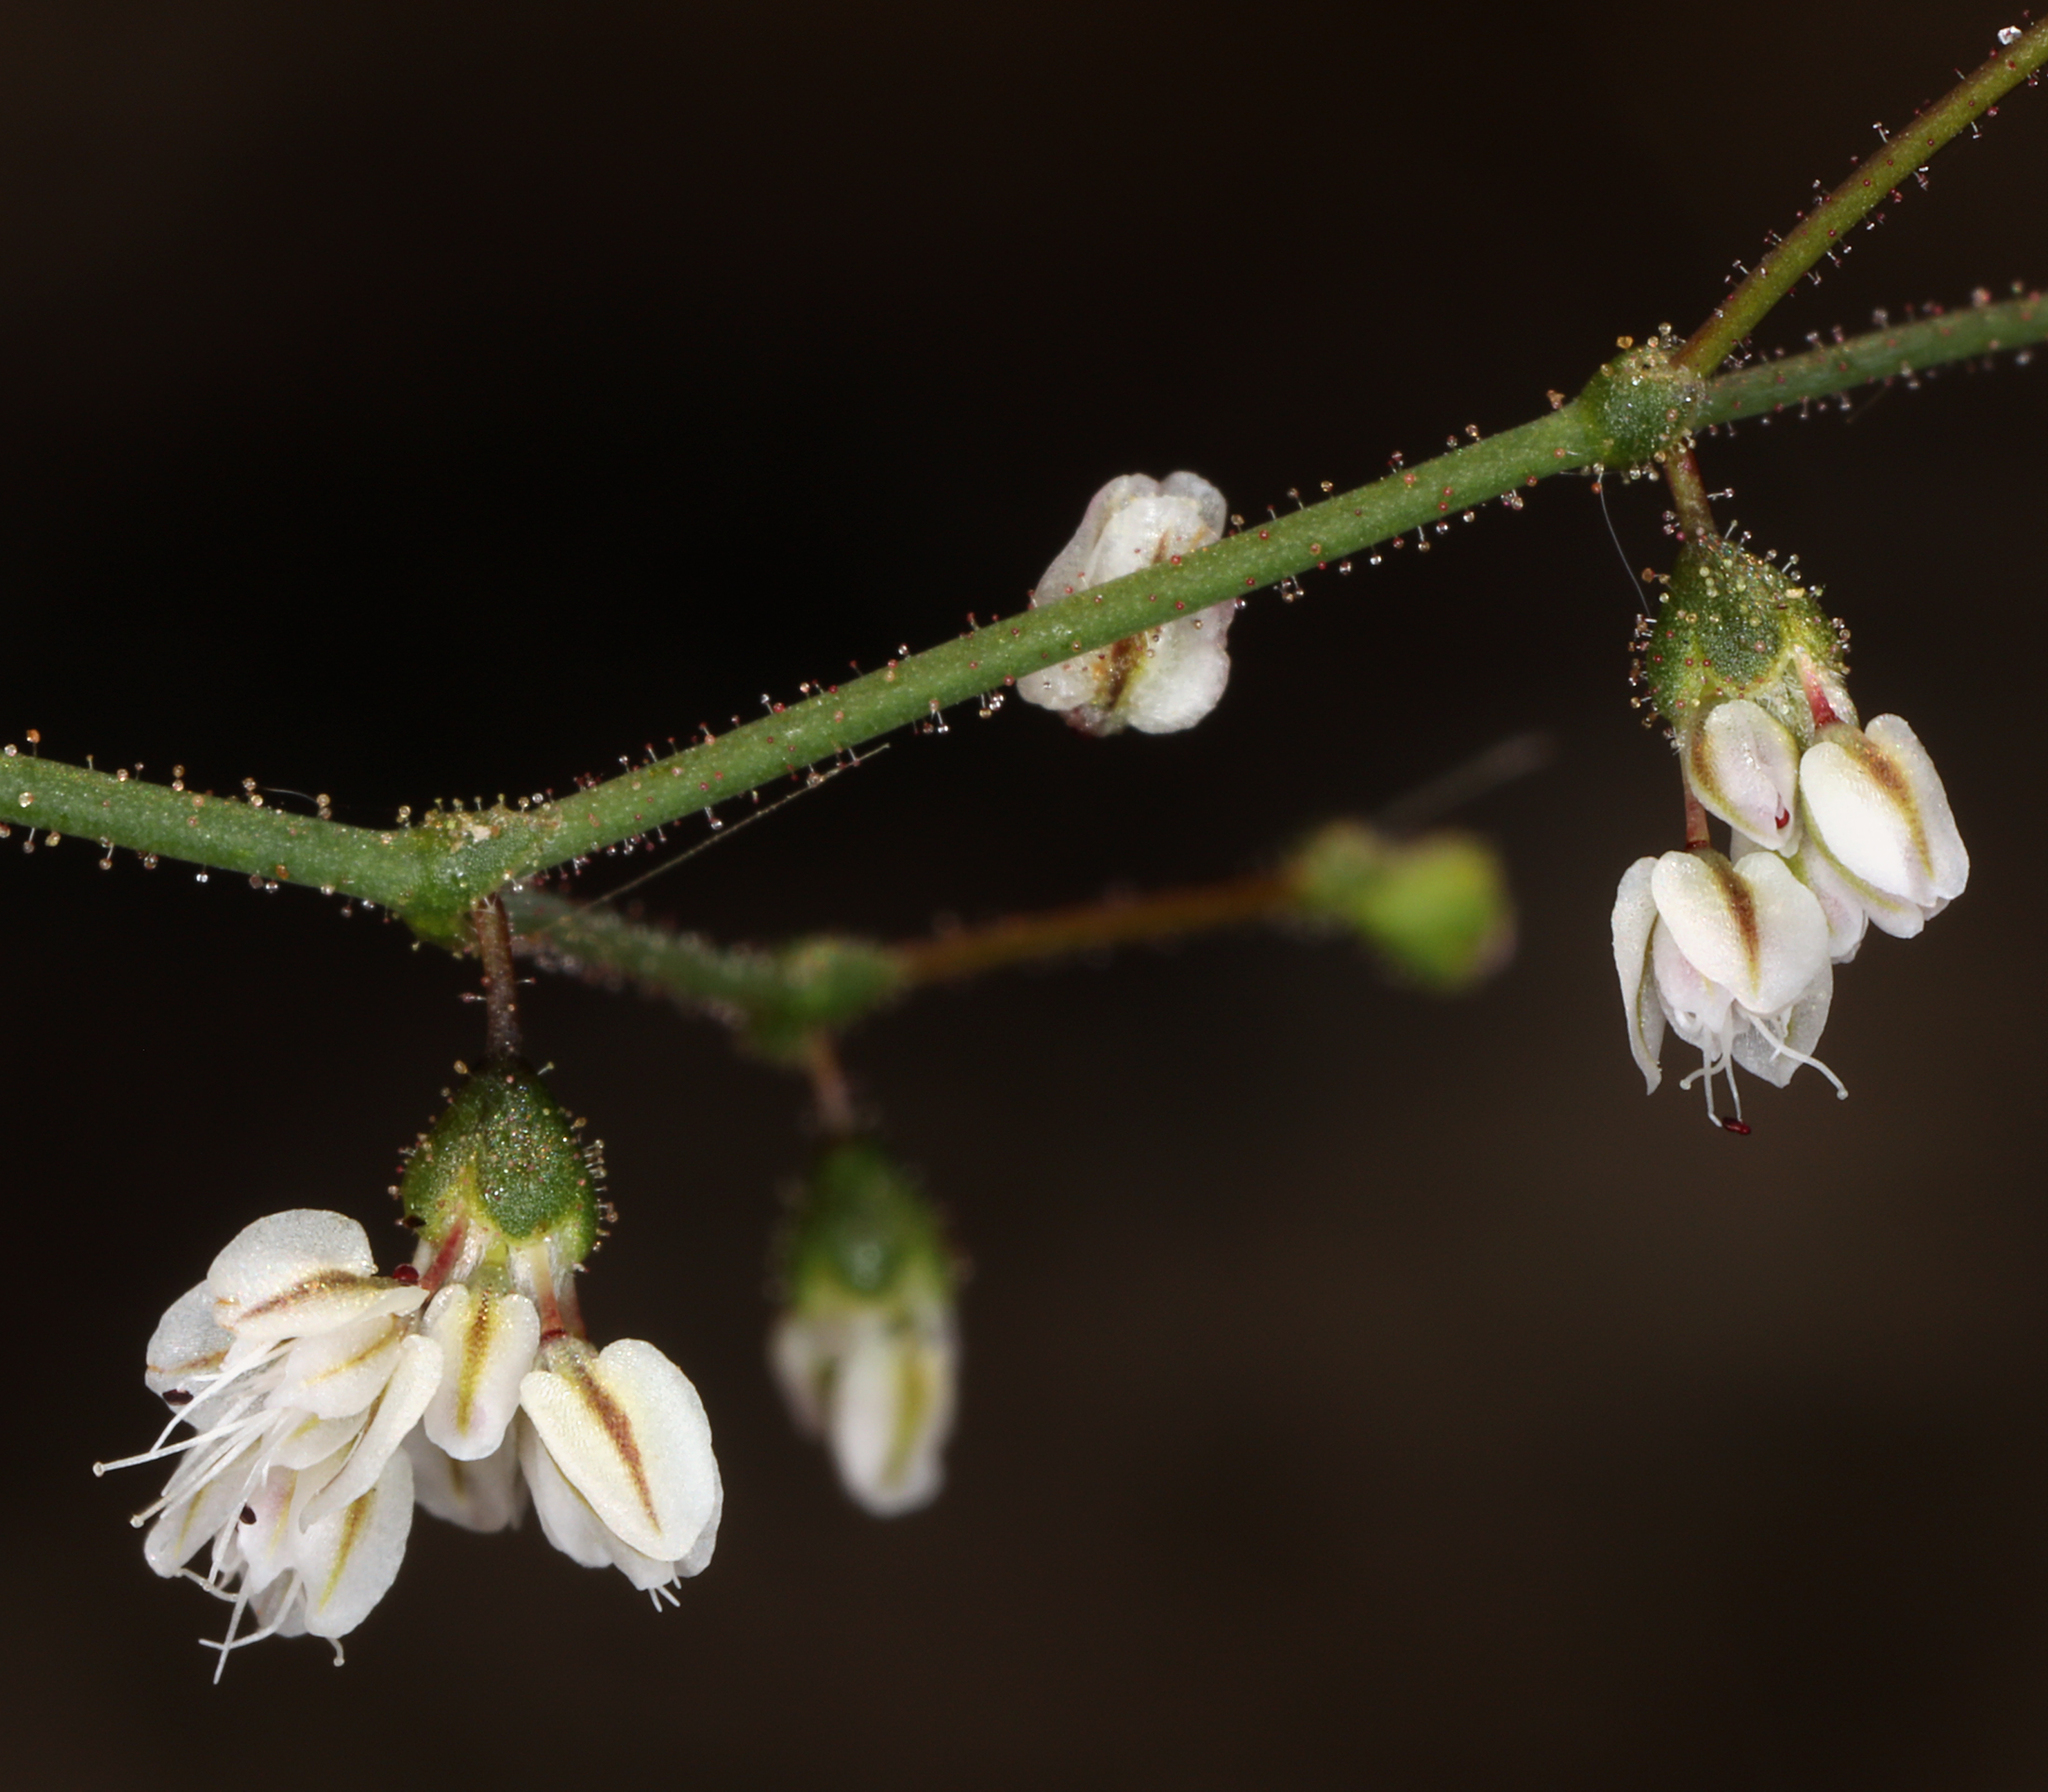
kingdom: Plantae
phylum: Tracheophyta
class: Magnoliopsida
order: Caryophyllales
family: Polygonaceae
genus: Eriogonum
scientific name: Eriogonum brachypodum
